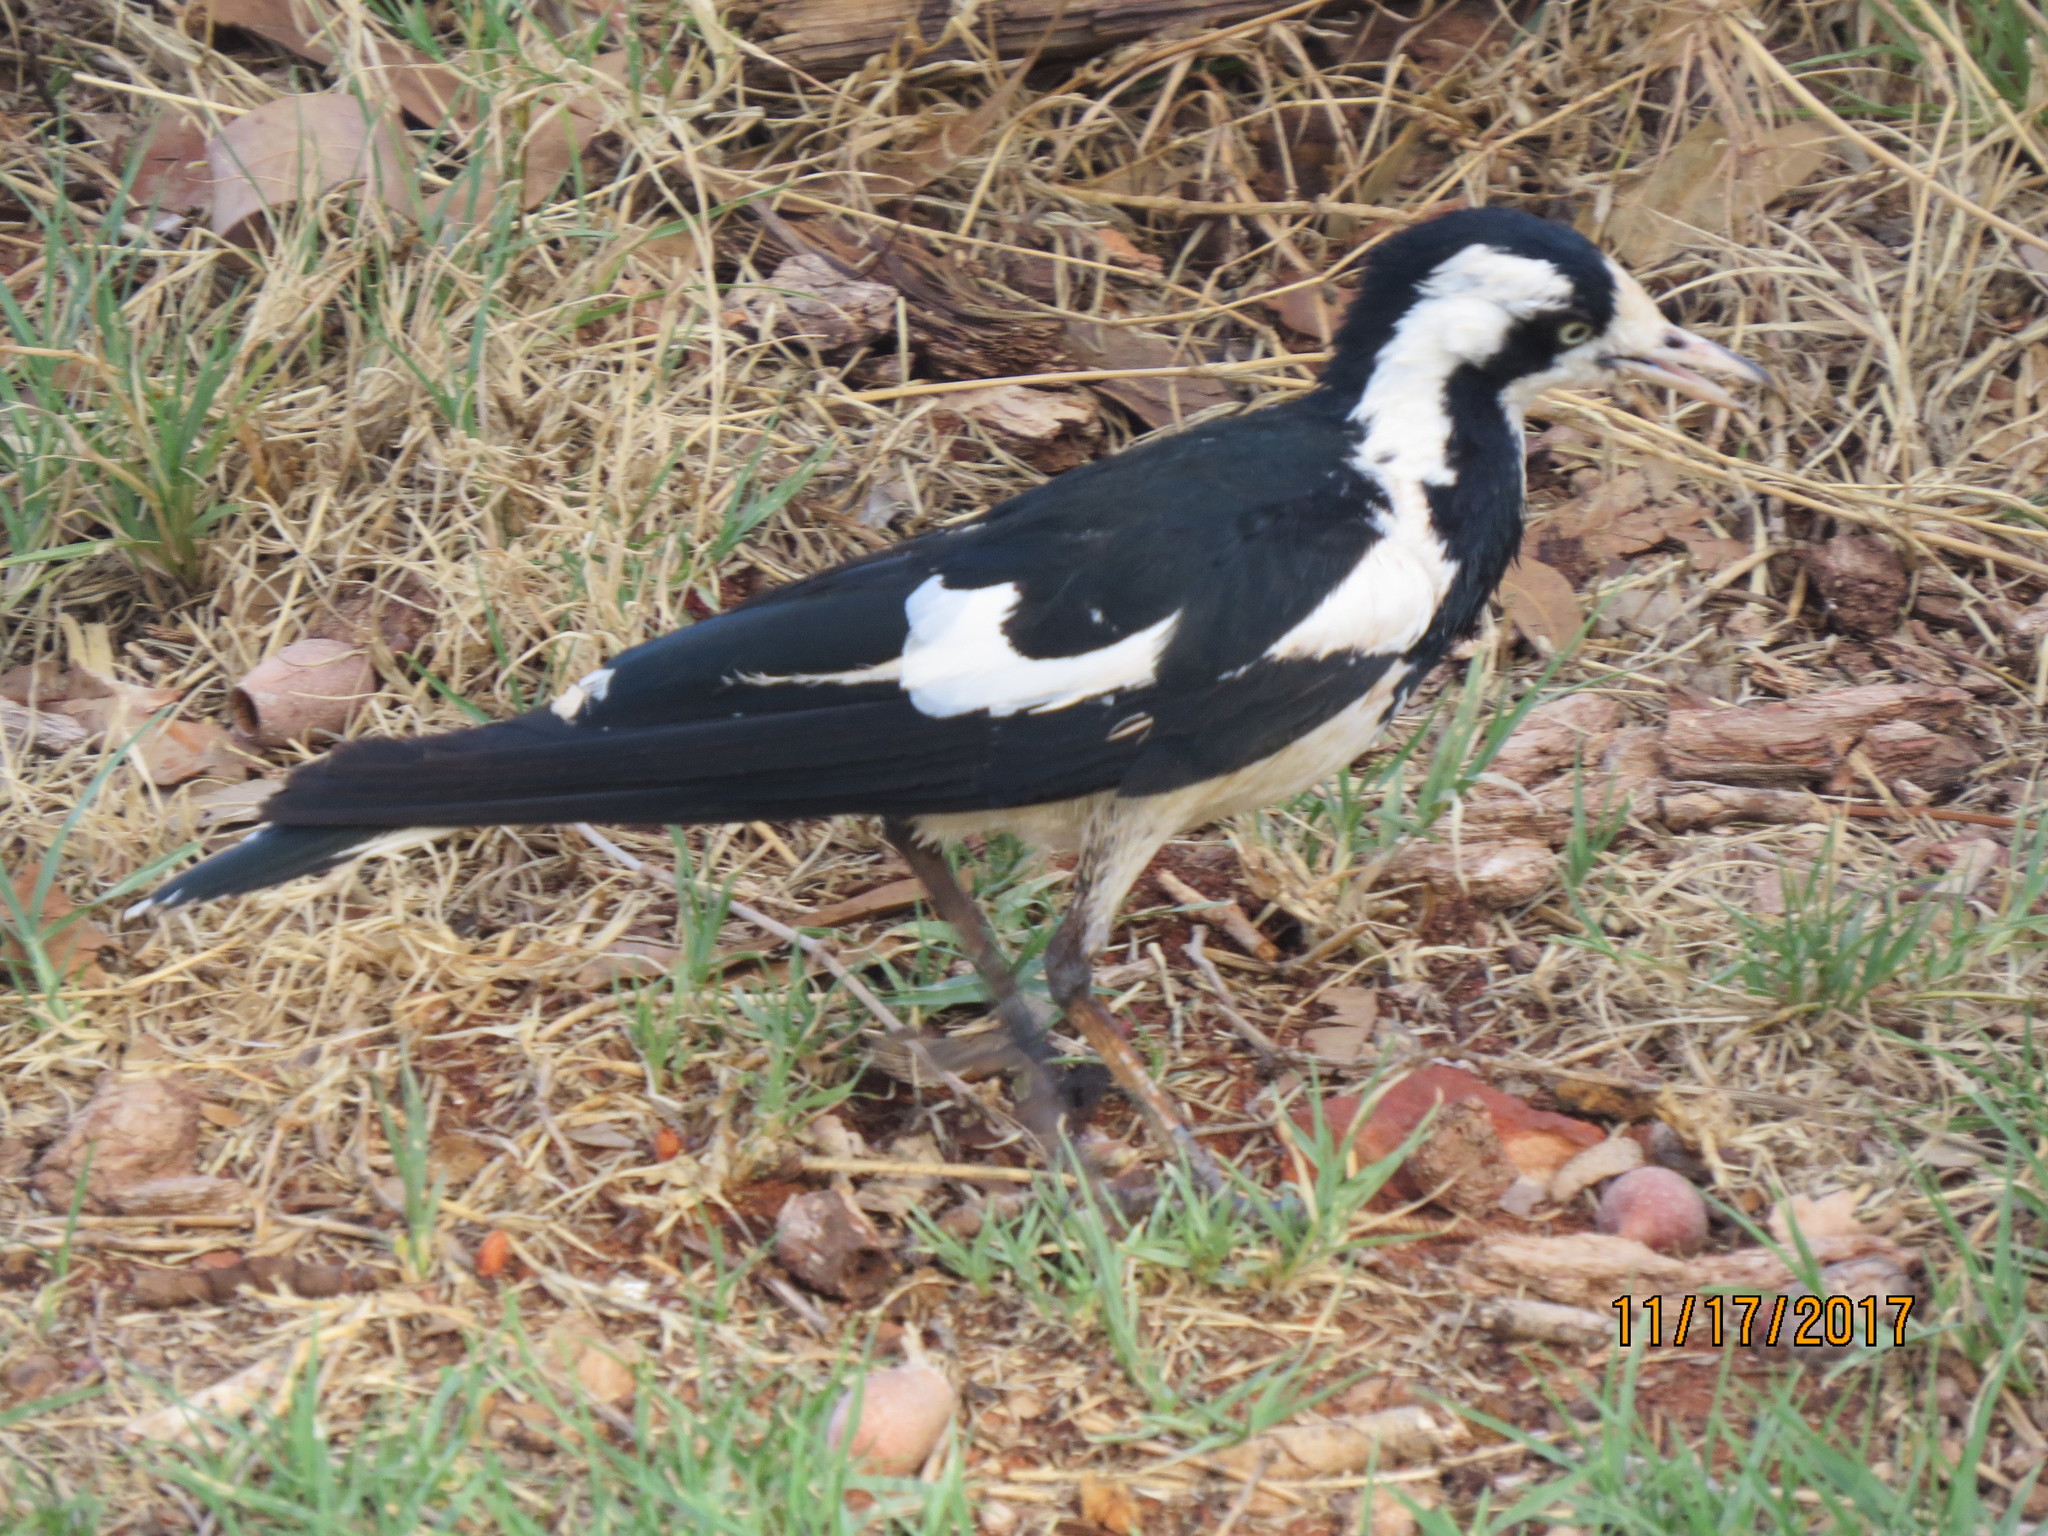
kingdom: Animalia
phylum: Chordata
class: Aves
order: Passeriformes
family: Monarchidae
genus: Grallina
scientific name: Grallina cyanoleuca
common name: Magpie-lark
